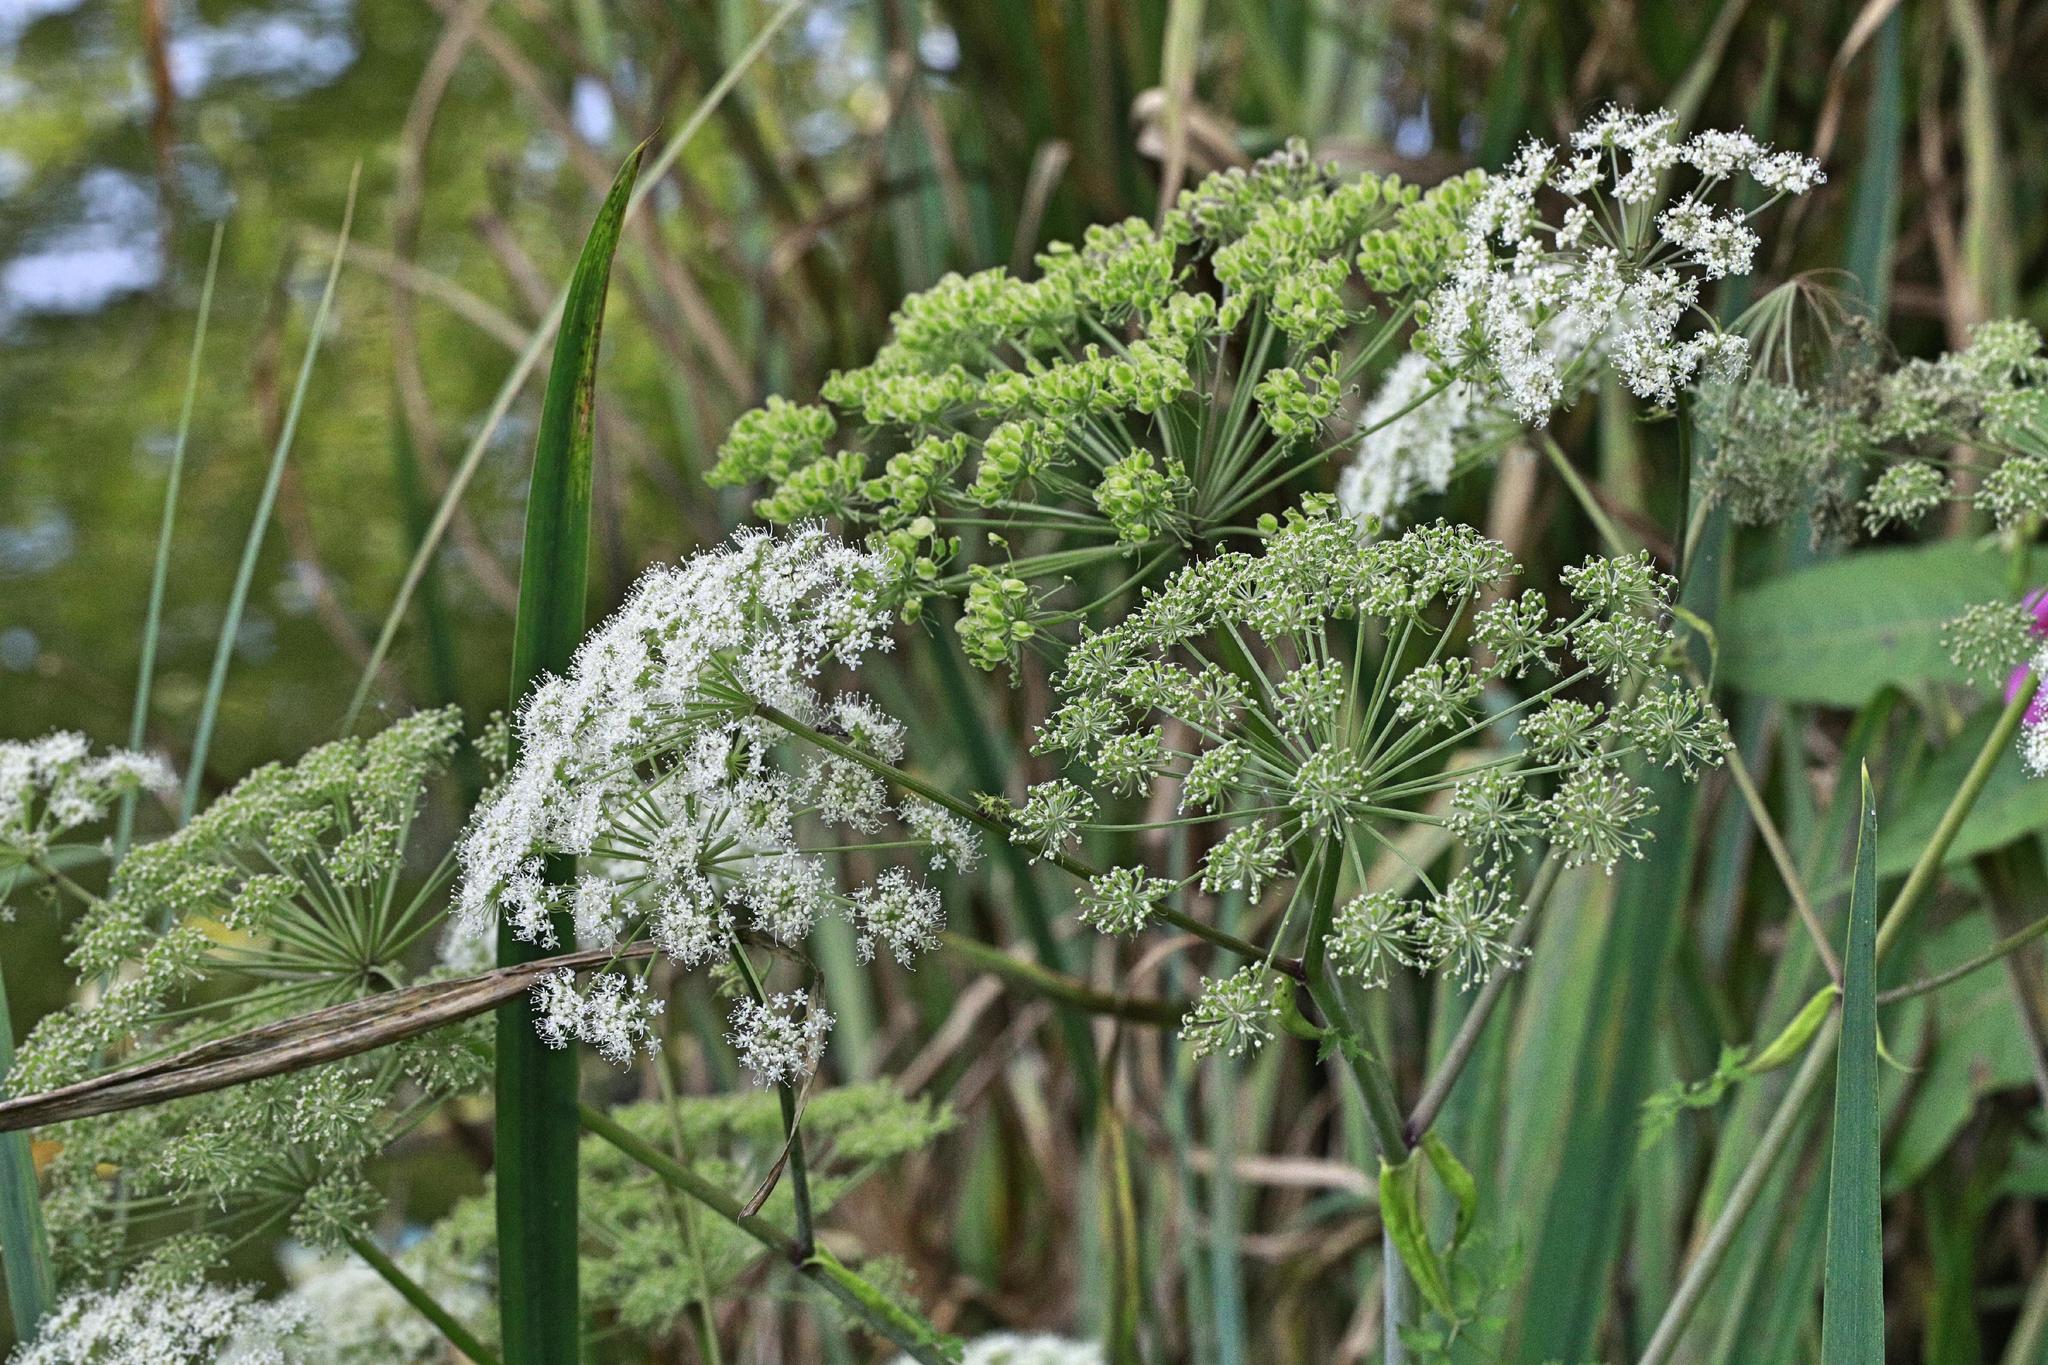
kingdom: Plantae
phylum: Tracheophyta
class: Magnoliopsida
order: Apiales
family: Apiaceae
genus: Angelica
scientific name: Angelica sylvestris
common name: Wild angelica
